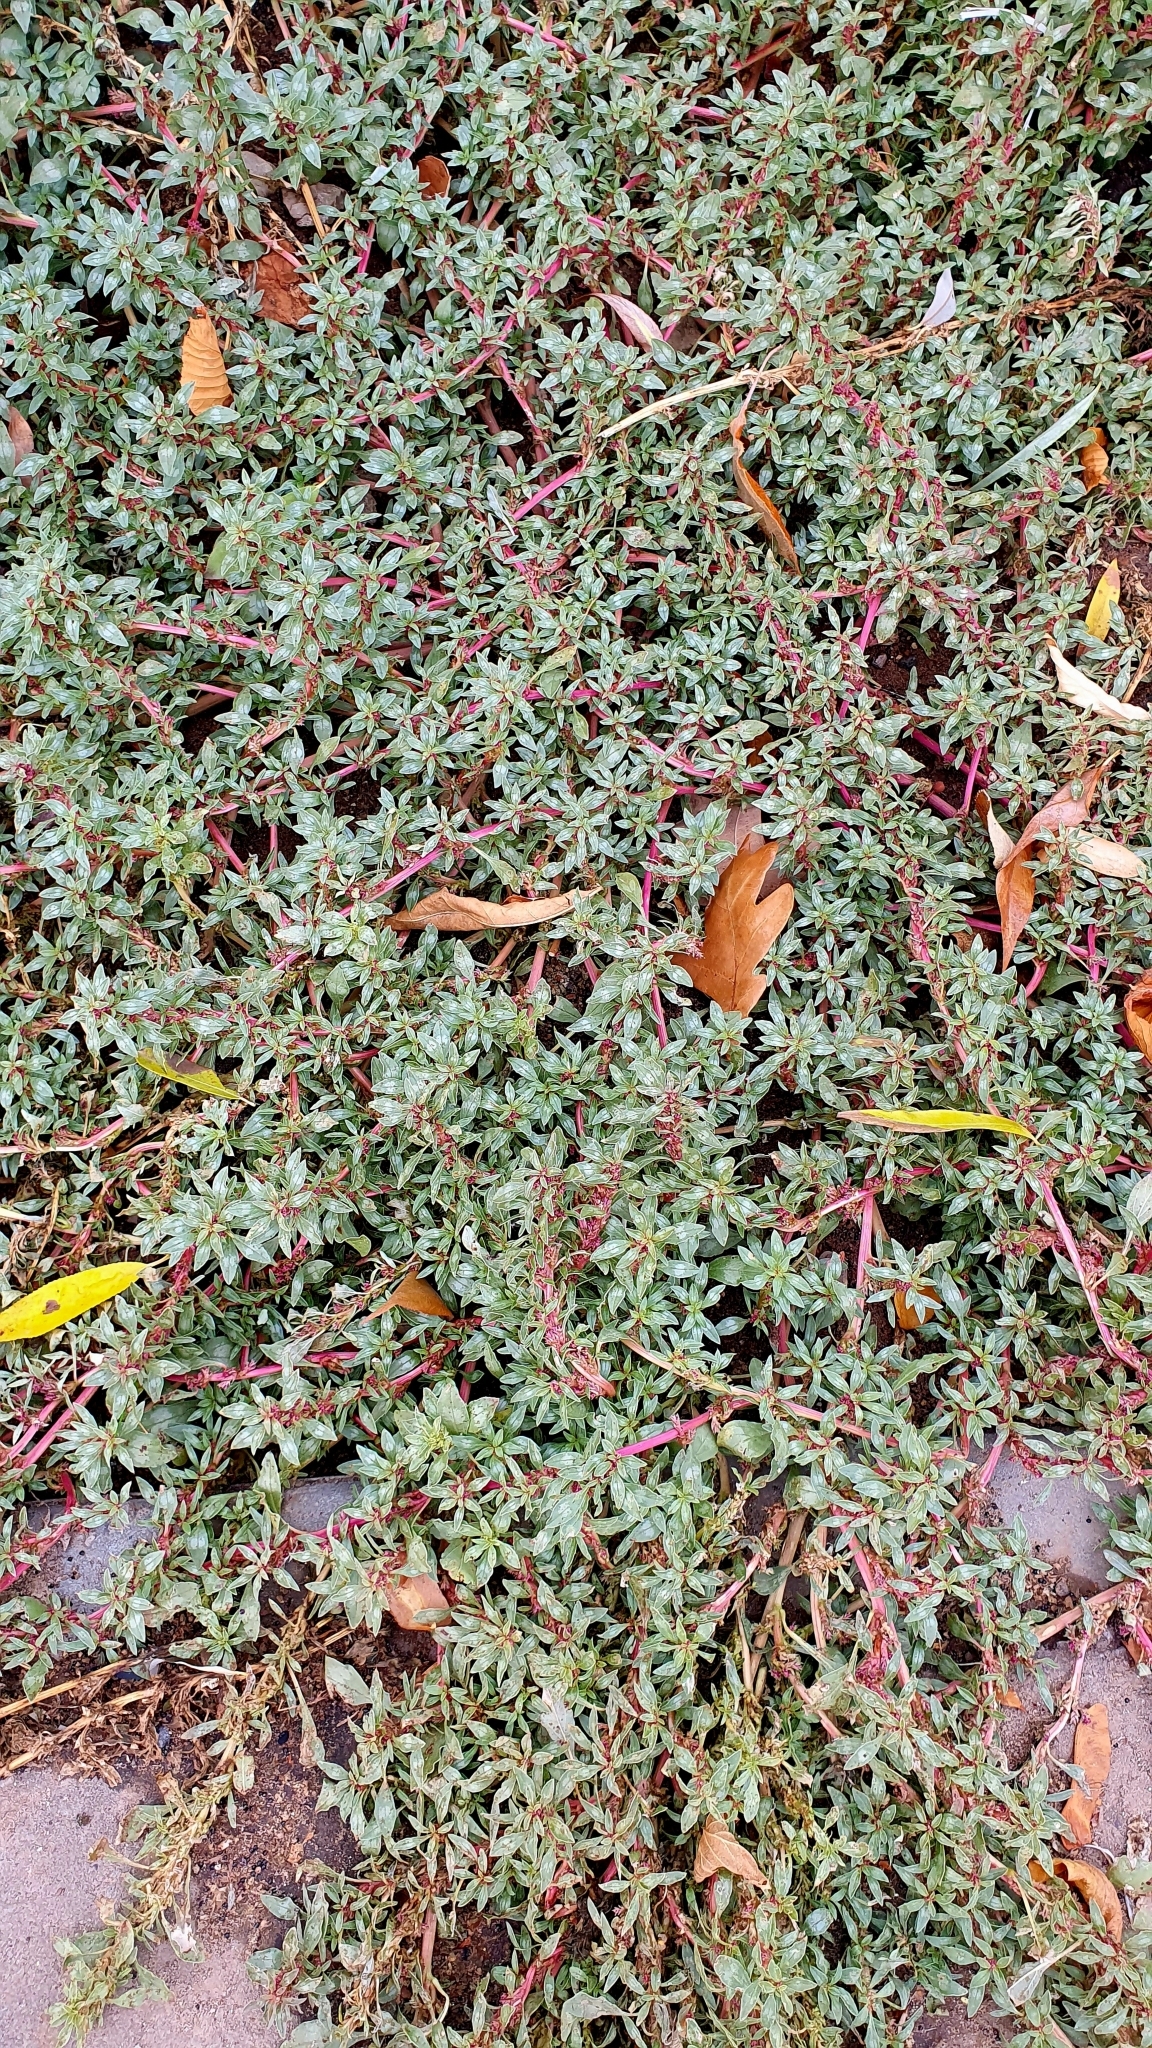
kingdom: Plantae
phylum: Tracheophyta
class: Magnoliopsida
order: Caryophyllales
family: Amaranthaceae
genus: Amaranthus
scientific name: Amaranthus blitoides
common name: Prostrate pigweed
